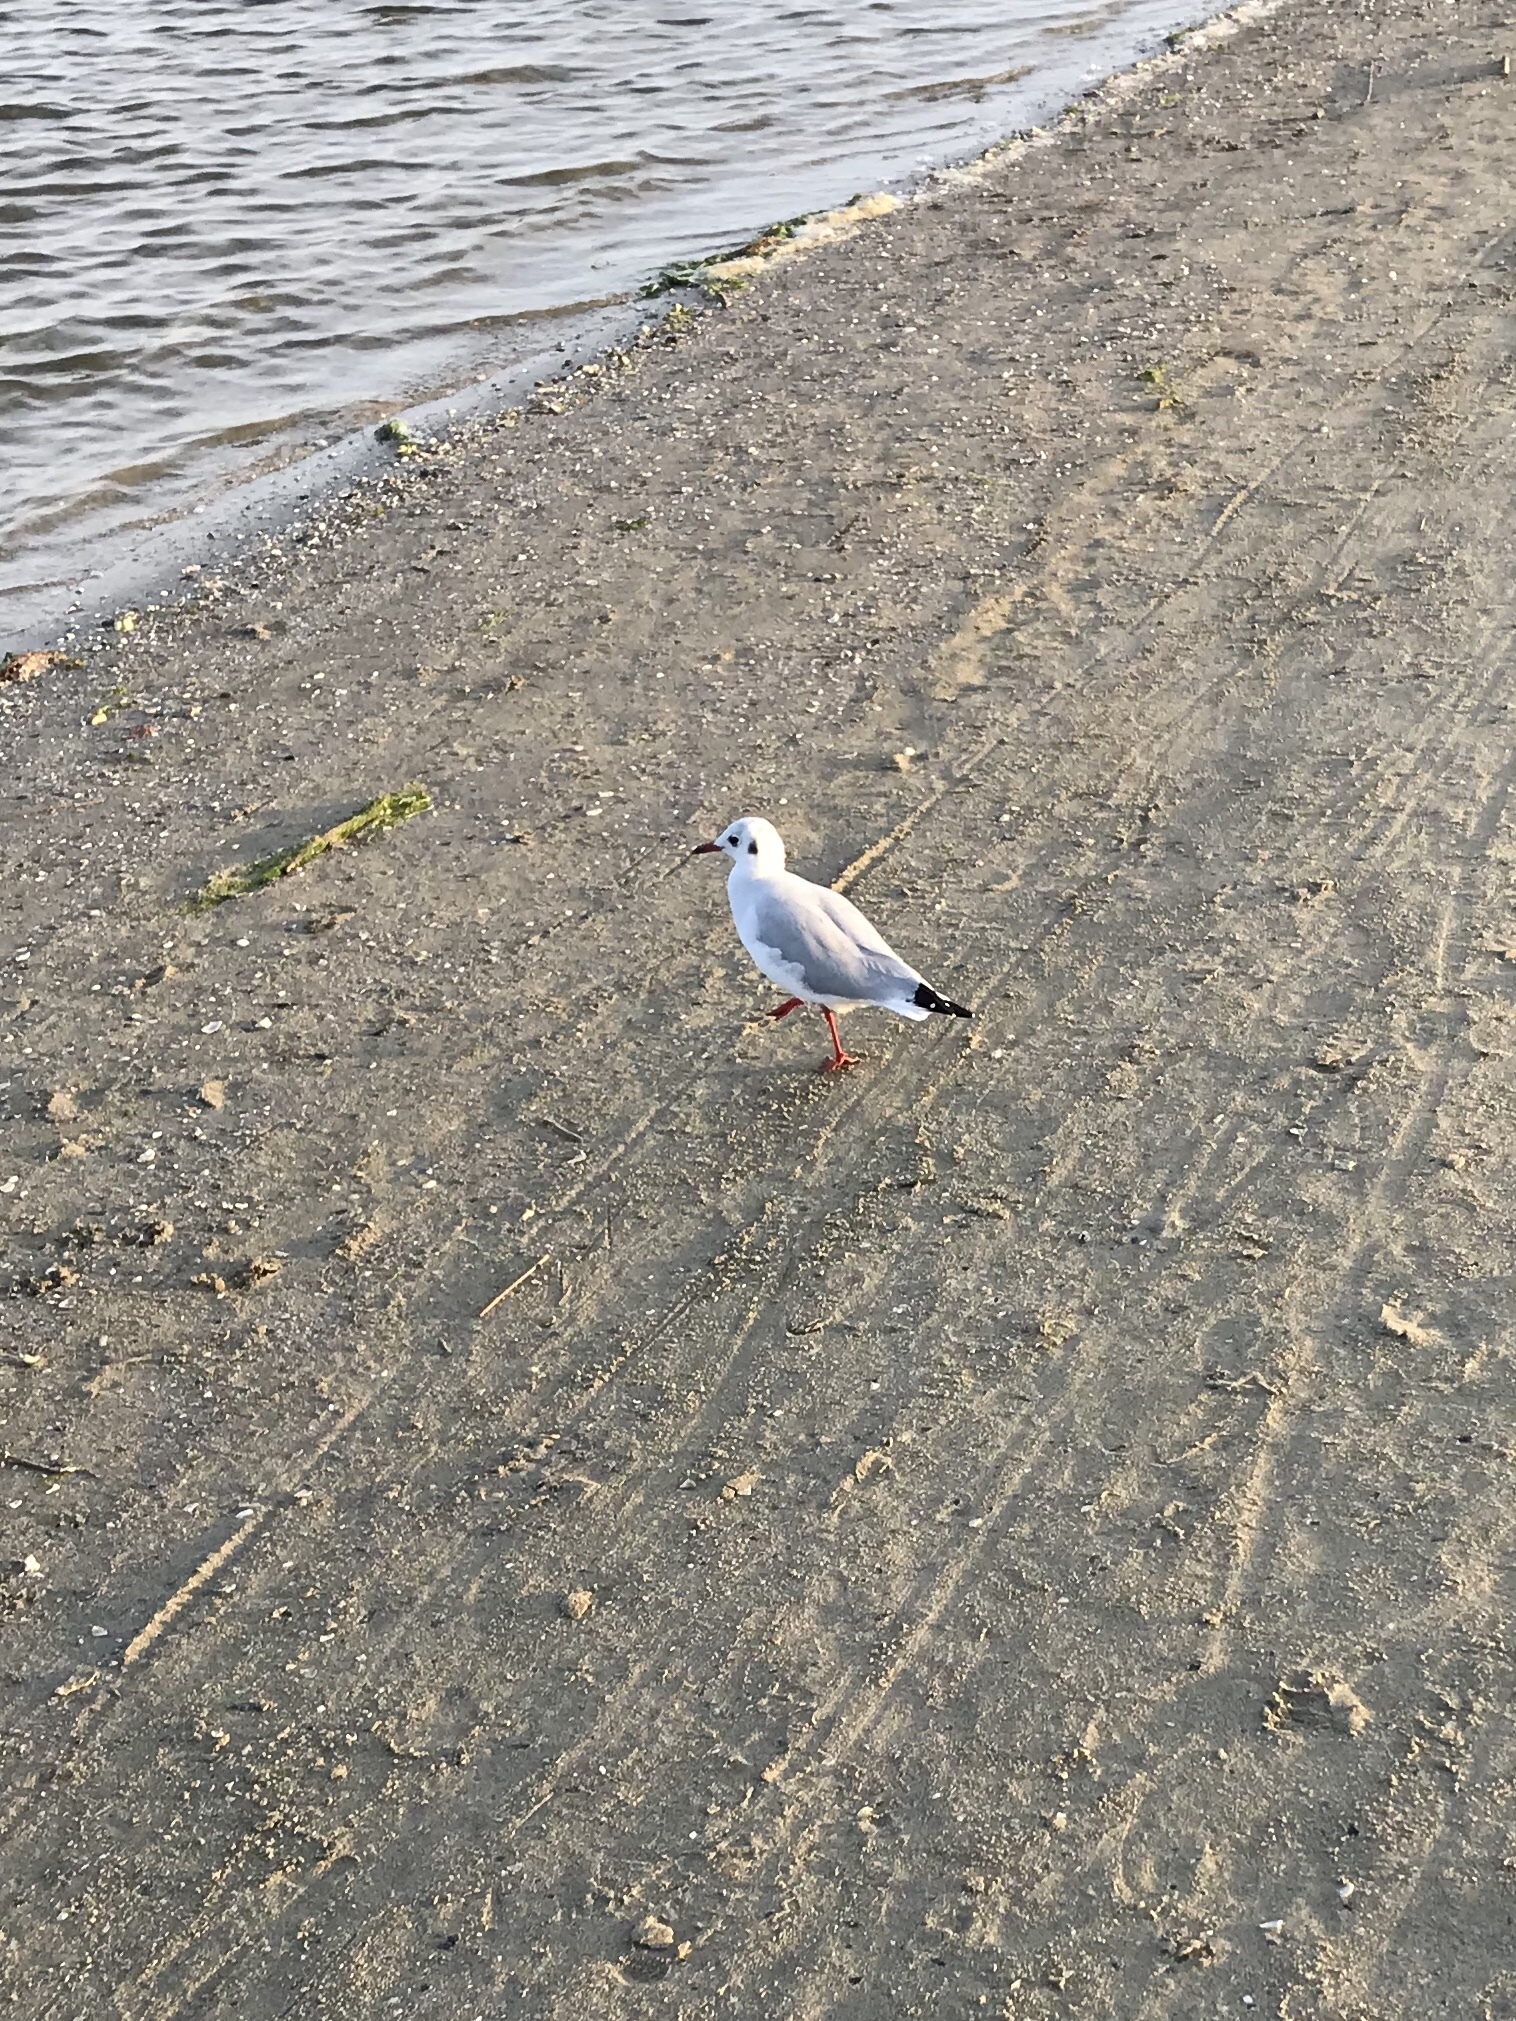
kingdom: Animalia
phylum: Chordata
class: Aves
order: Charadriiformes
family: Laridae
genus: Chroicocephalus
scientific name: Chroicocephalus ridibundus
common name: Black-headed gull
